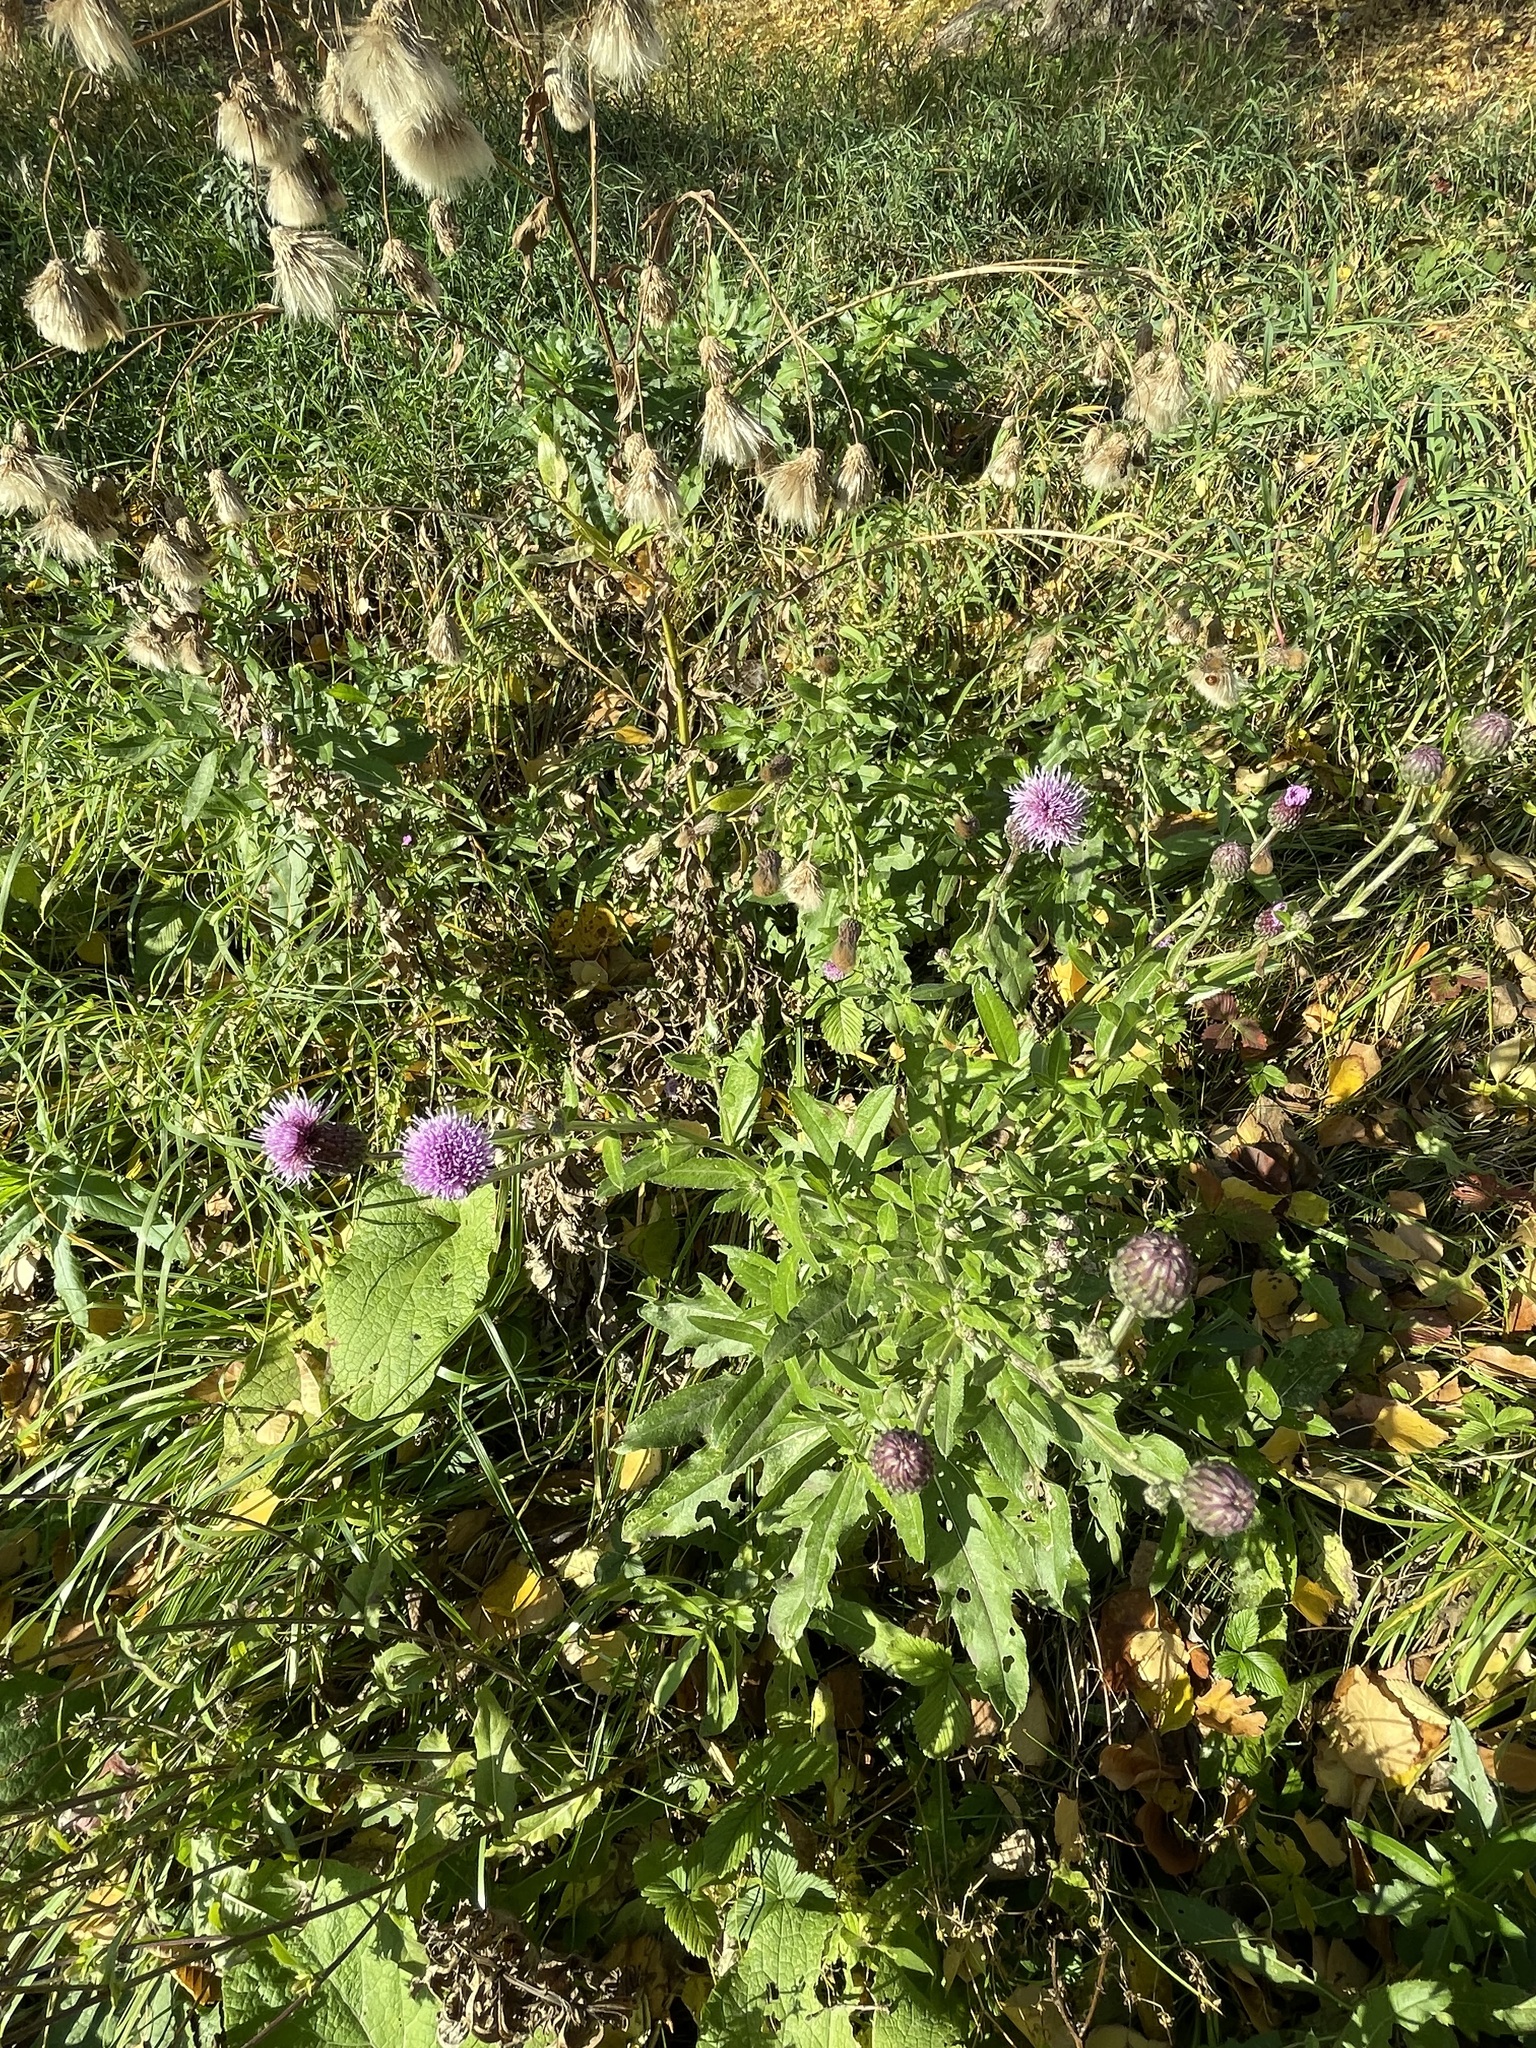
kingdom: Plantae
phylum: Tracheophyta
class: Magnoliopsida
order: Asterales
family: Asteraceae
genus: Cirsium
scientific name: Cirsium arvense
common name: Creeping thistle
